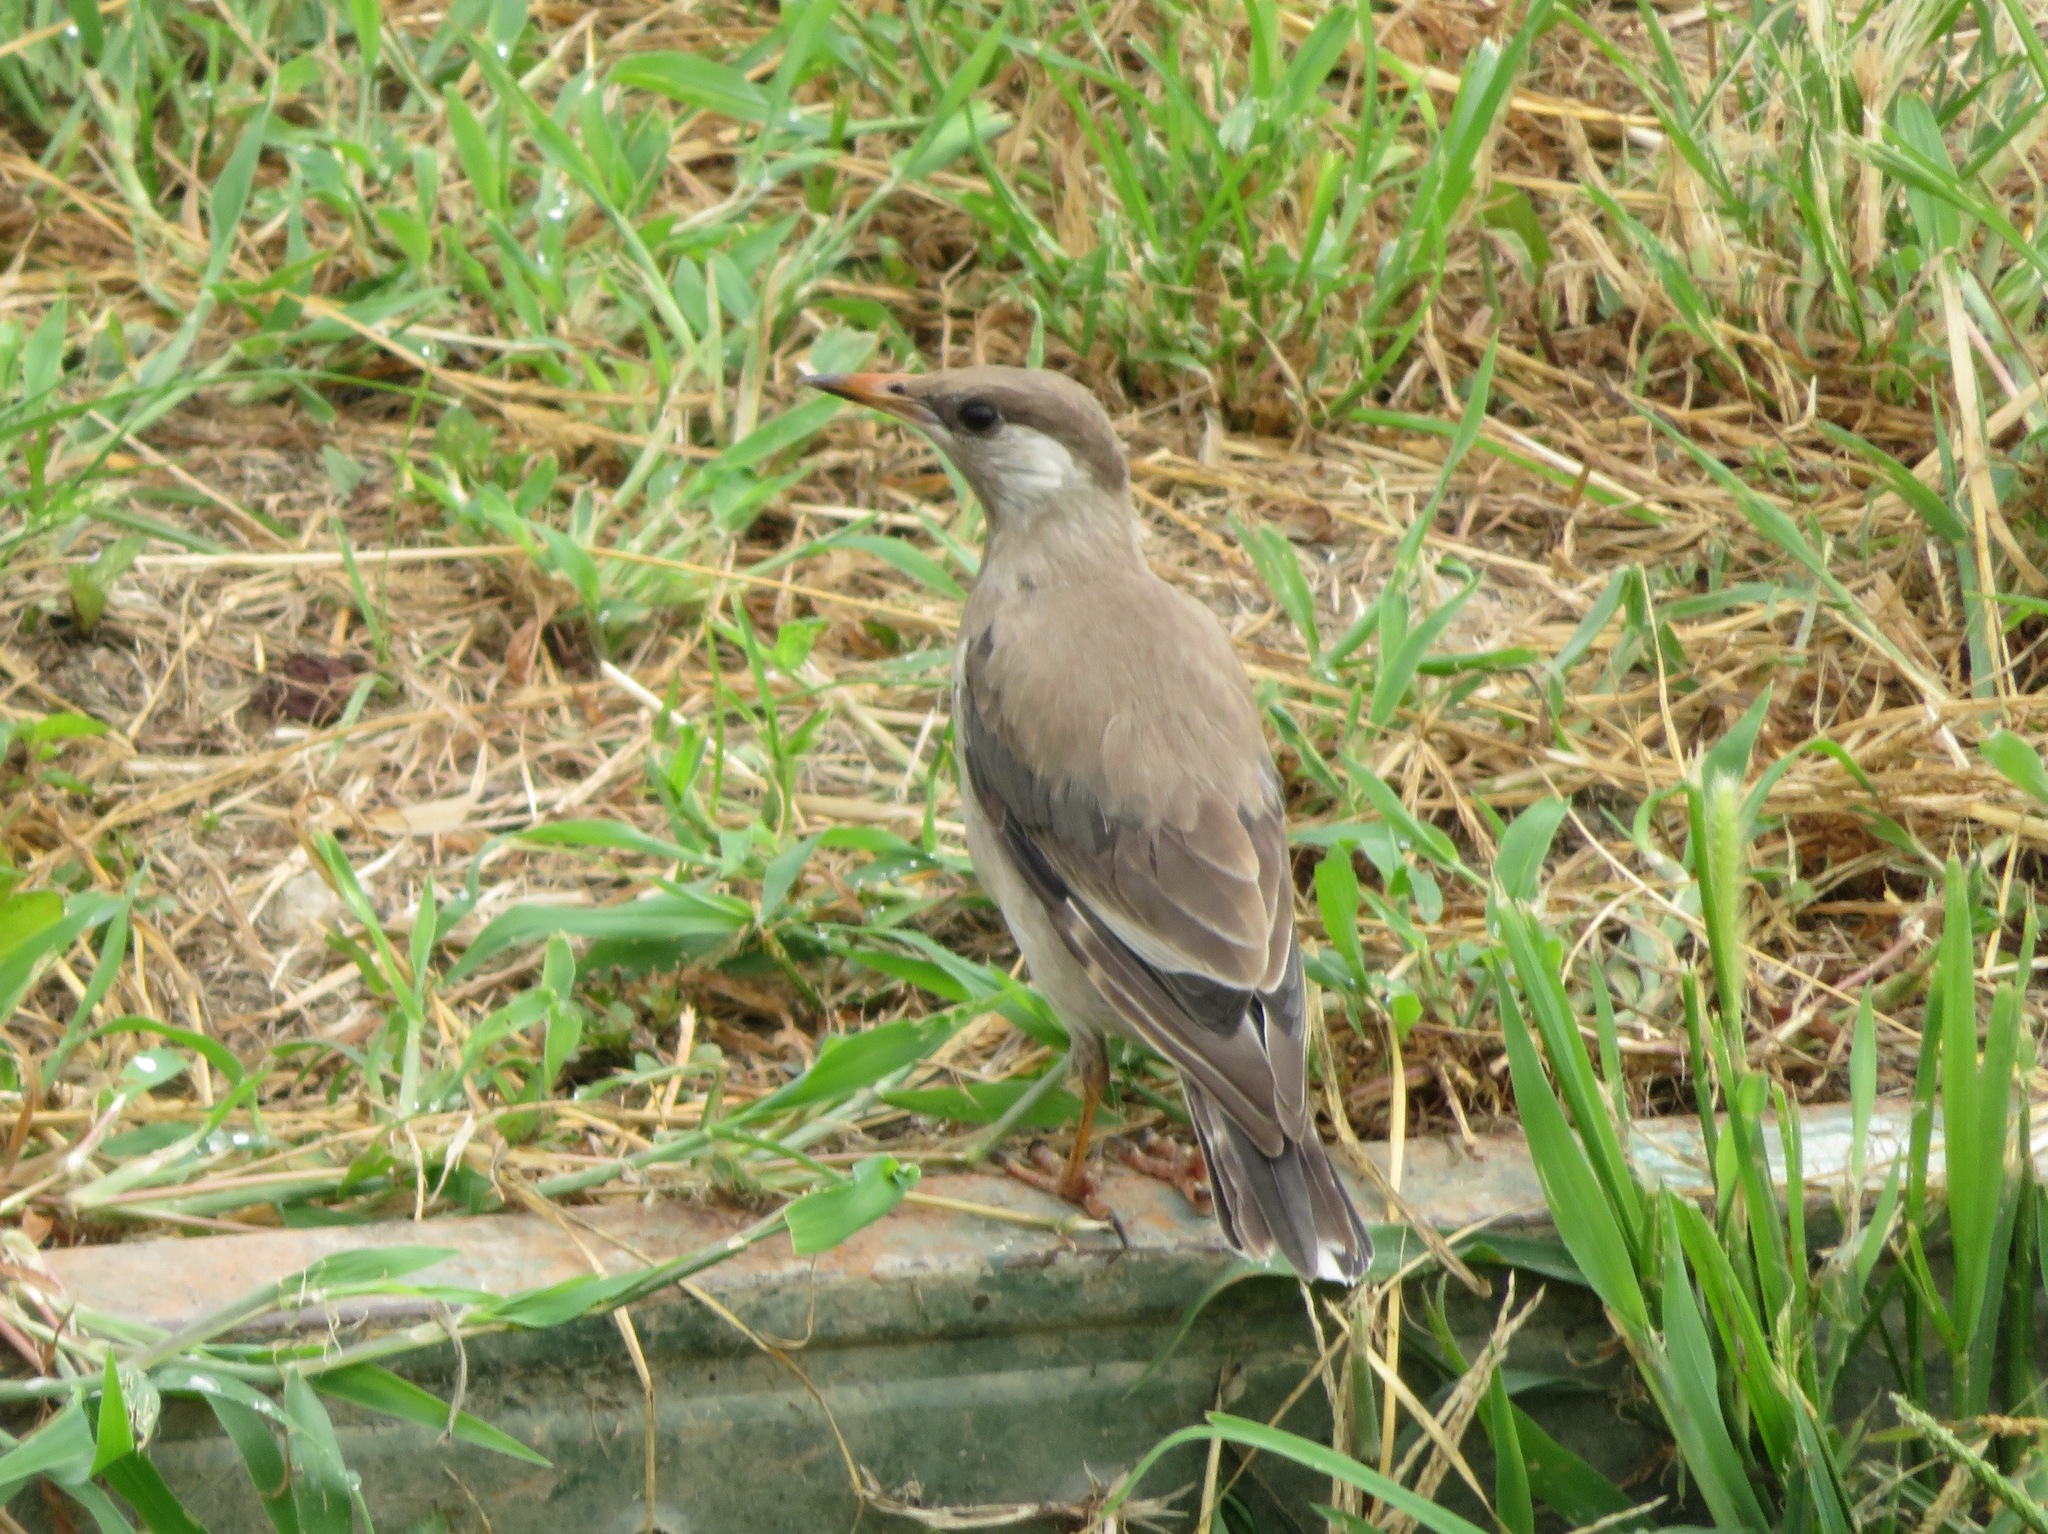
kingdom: Animalia
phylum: Chordata
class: Aves
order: Passeriformes
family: Sturnidae
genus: Spodiopsar
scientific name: Spodiopsar cineraceus
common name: White-cheeked starling
